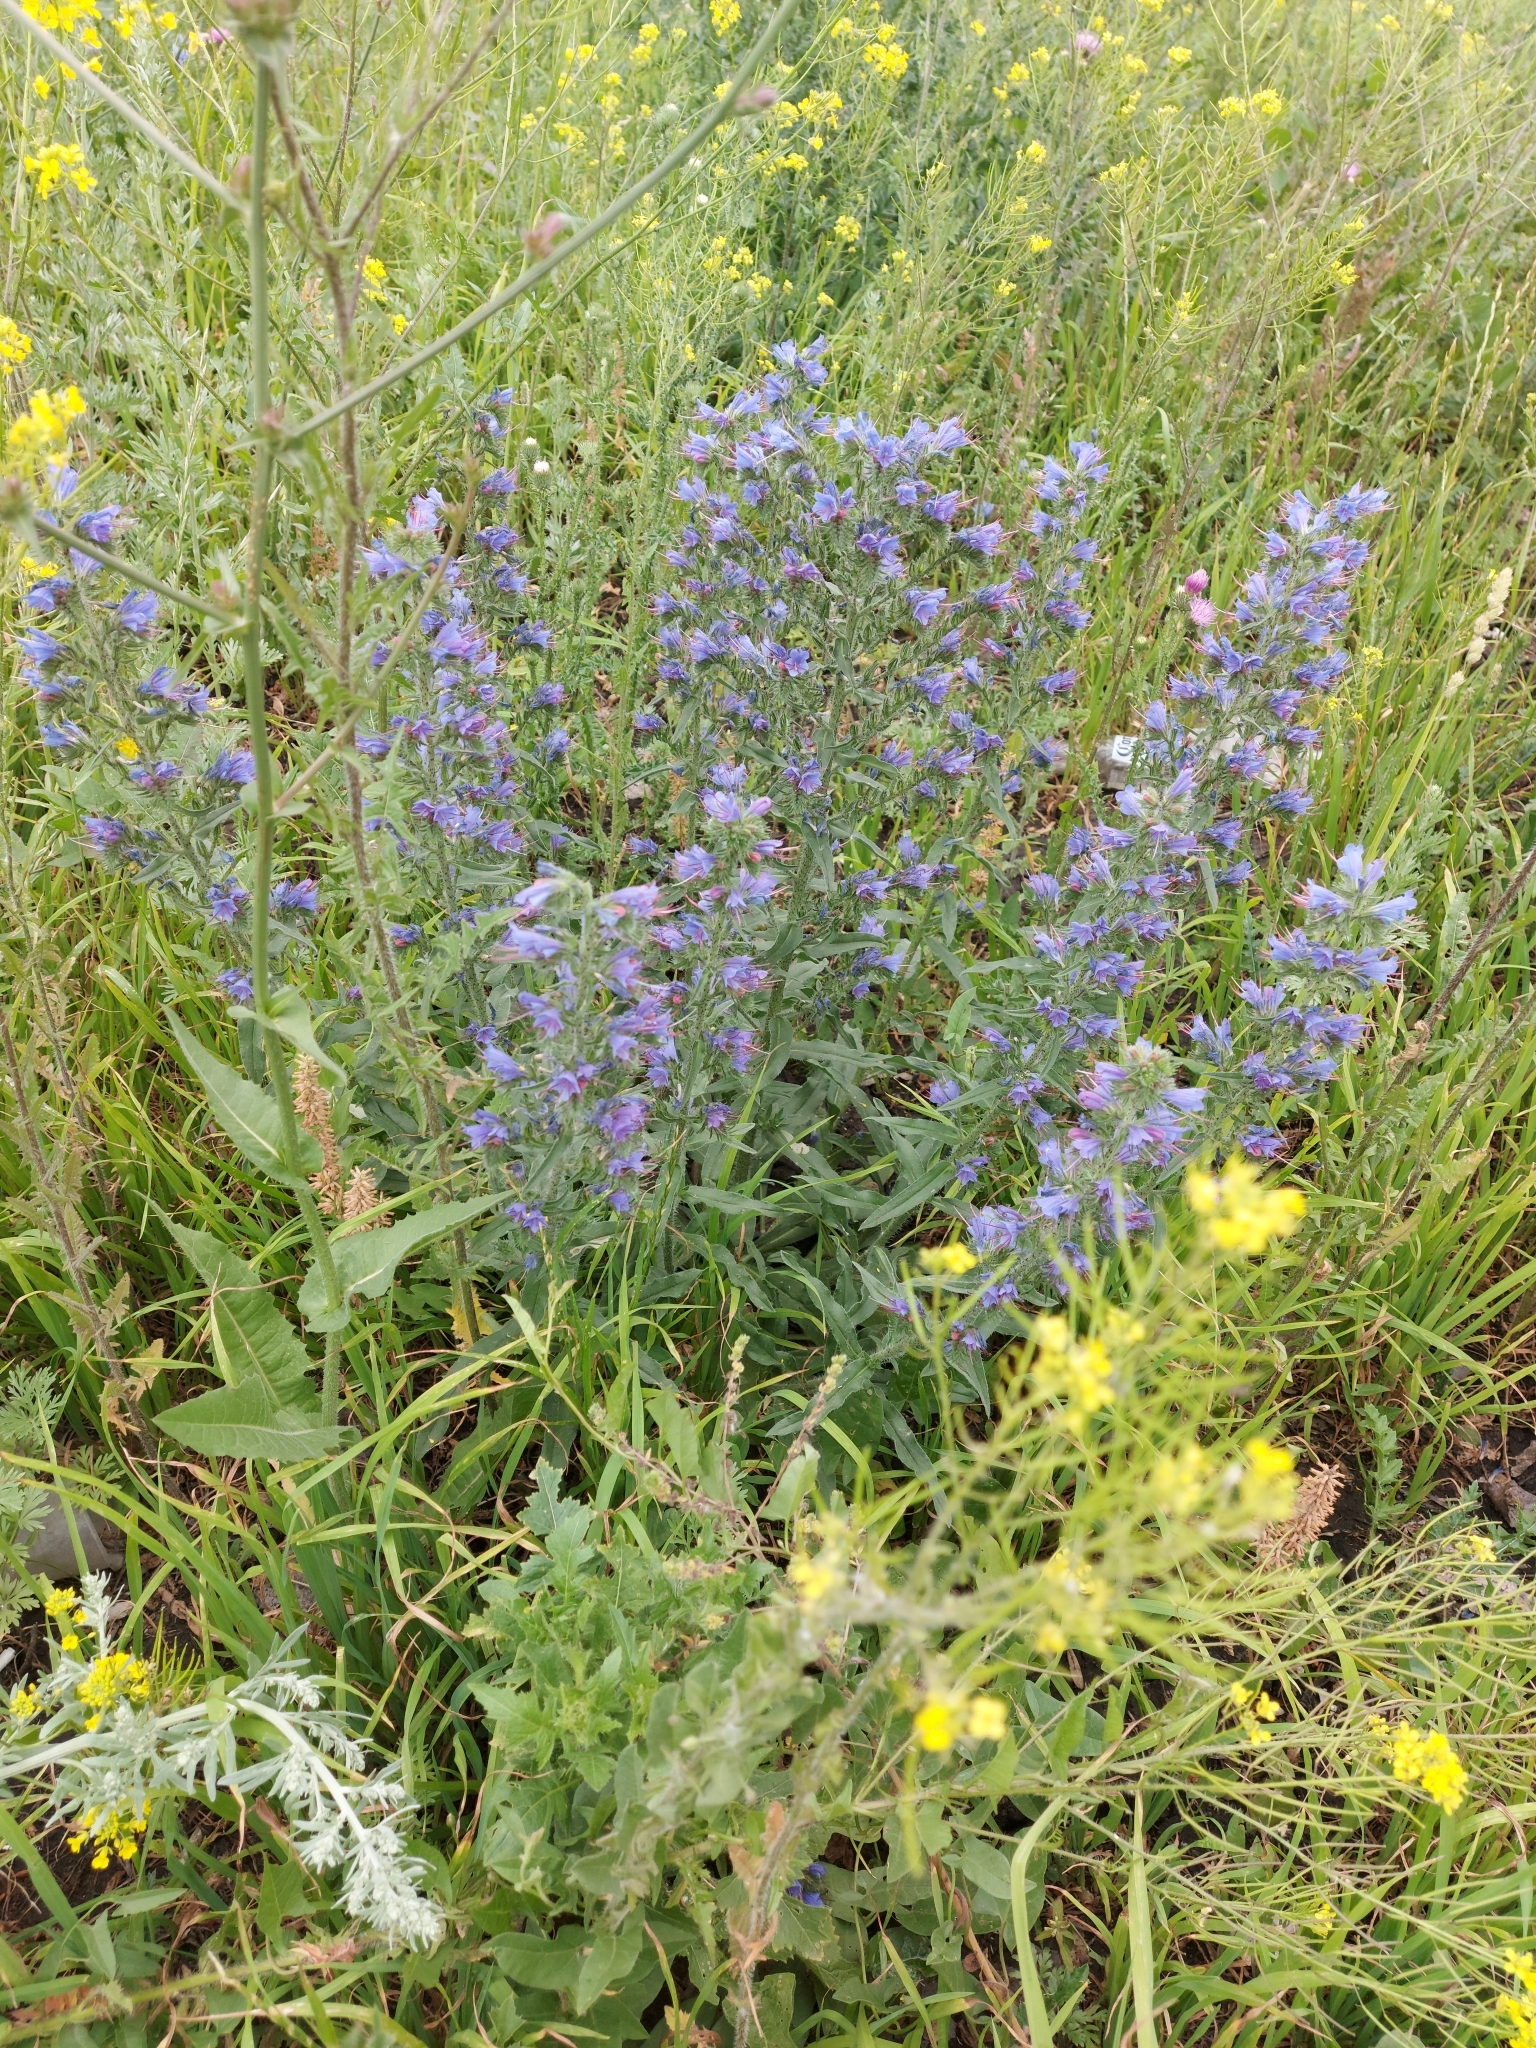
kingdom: Plantae
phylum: Tracheophyta
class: Magnoliopsida
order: Boraginales
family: Boraginaceae
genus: Echium
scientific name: Echium vulgare
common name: Common viper's bugloss
